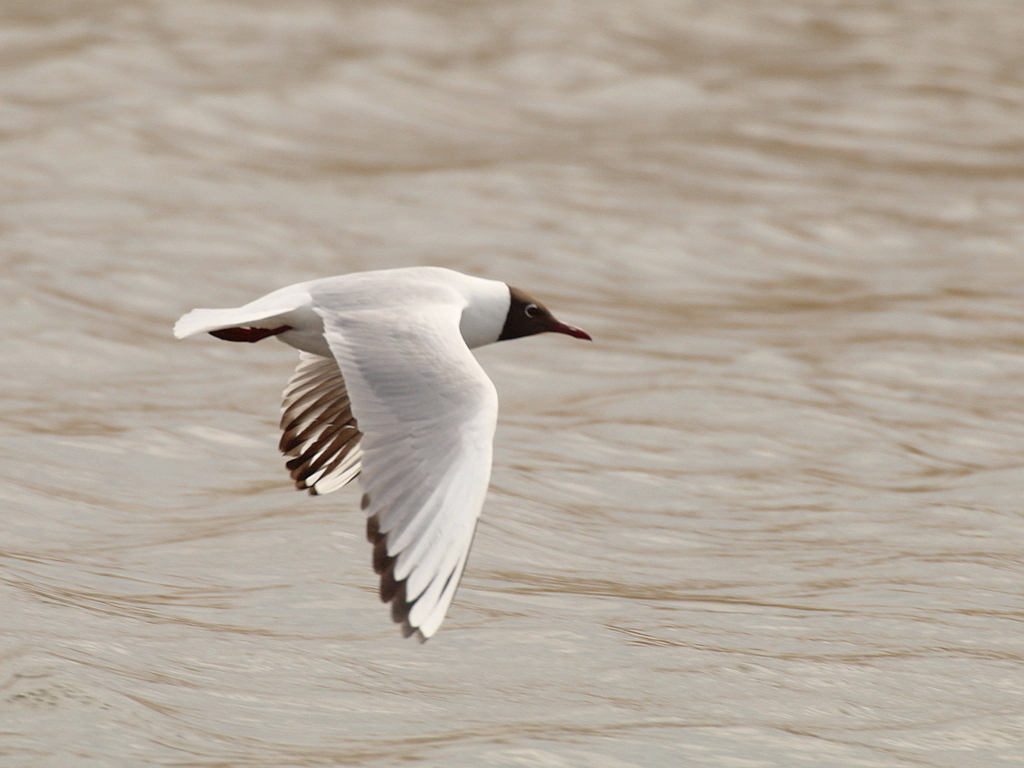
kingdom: Animalia
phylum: Chordata
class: Aves
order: Charadriiformes
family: Laridae
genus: Chroicocephalus
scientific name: Chroicocephalus ridibundus
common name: Black-headed gull
